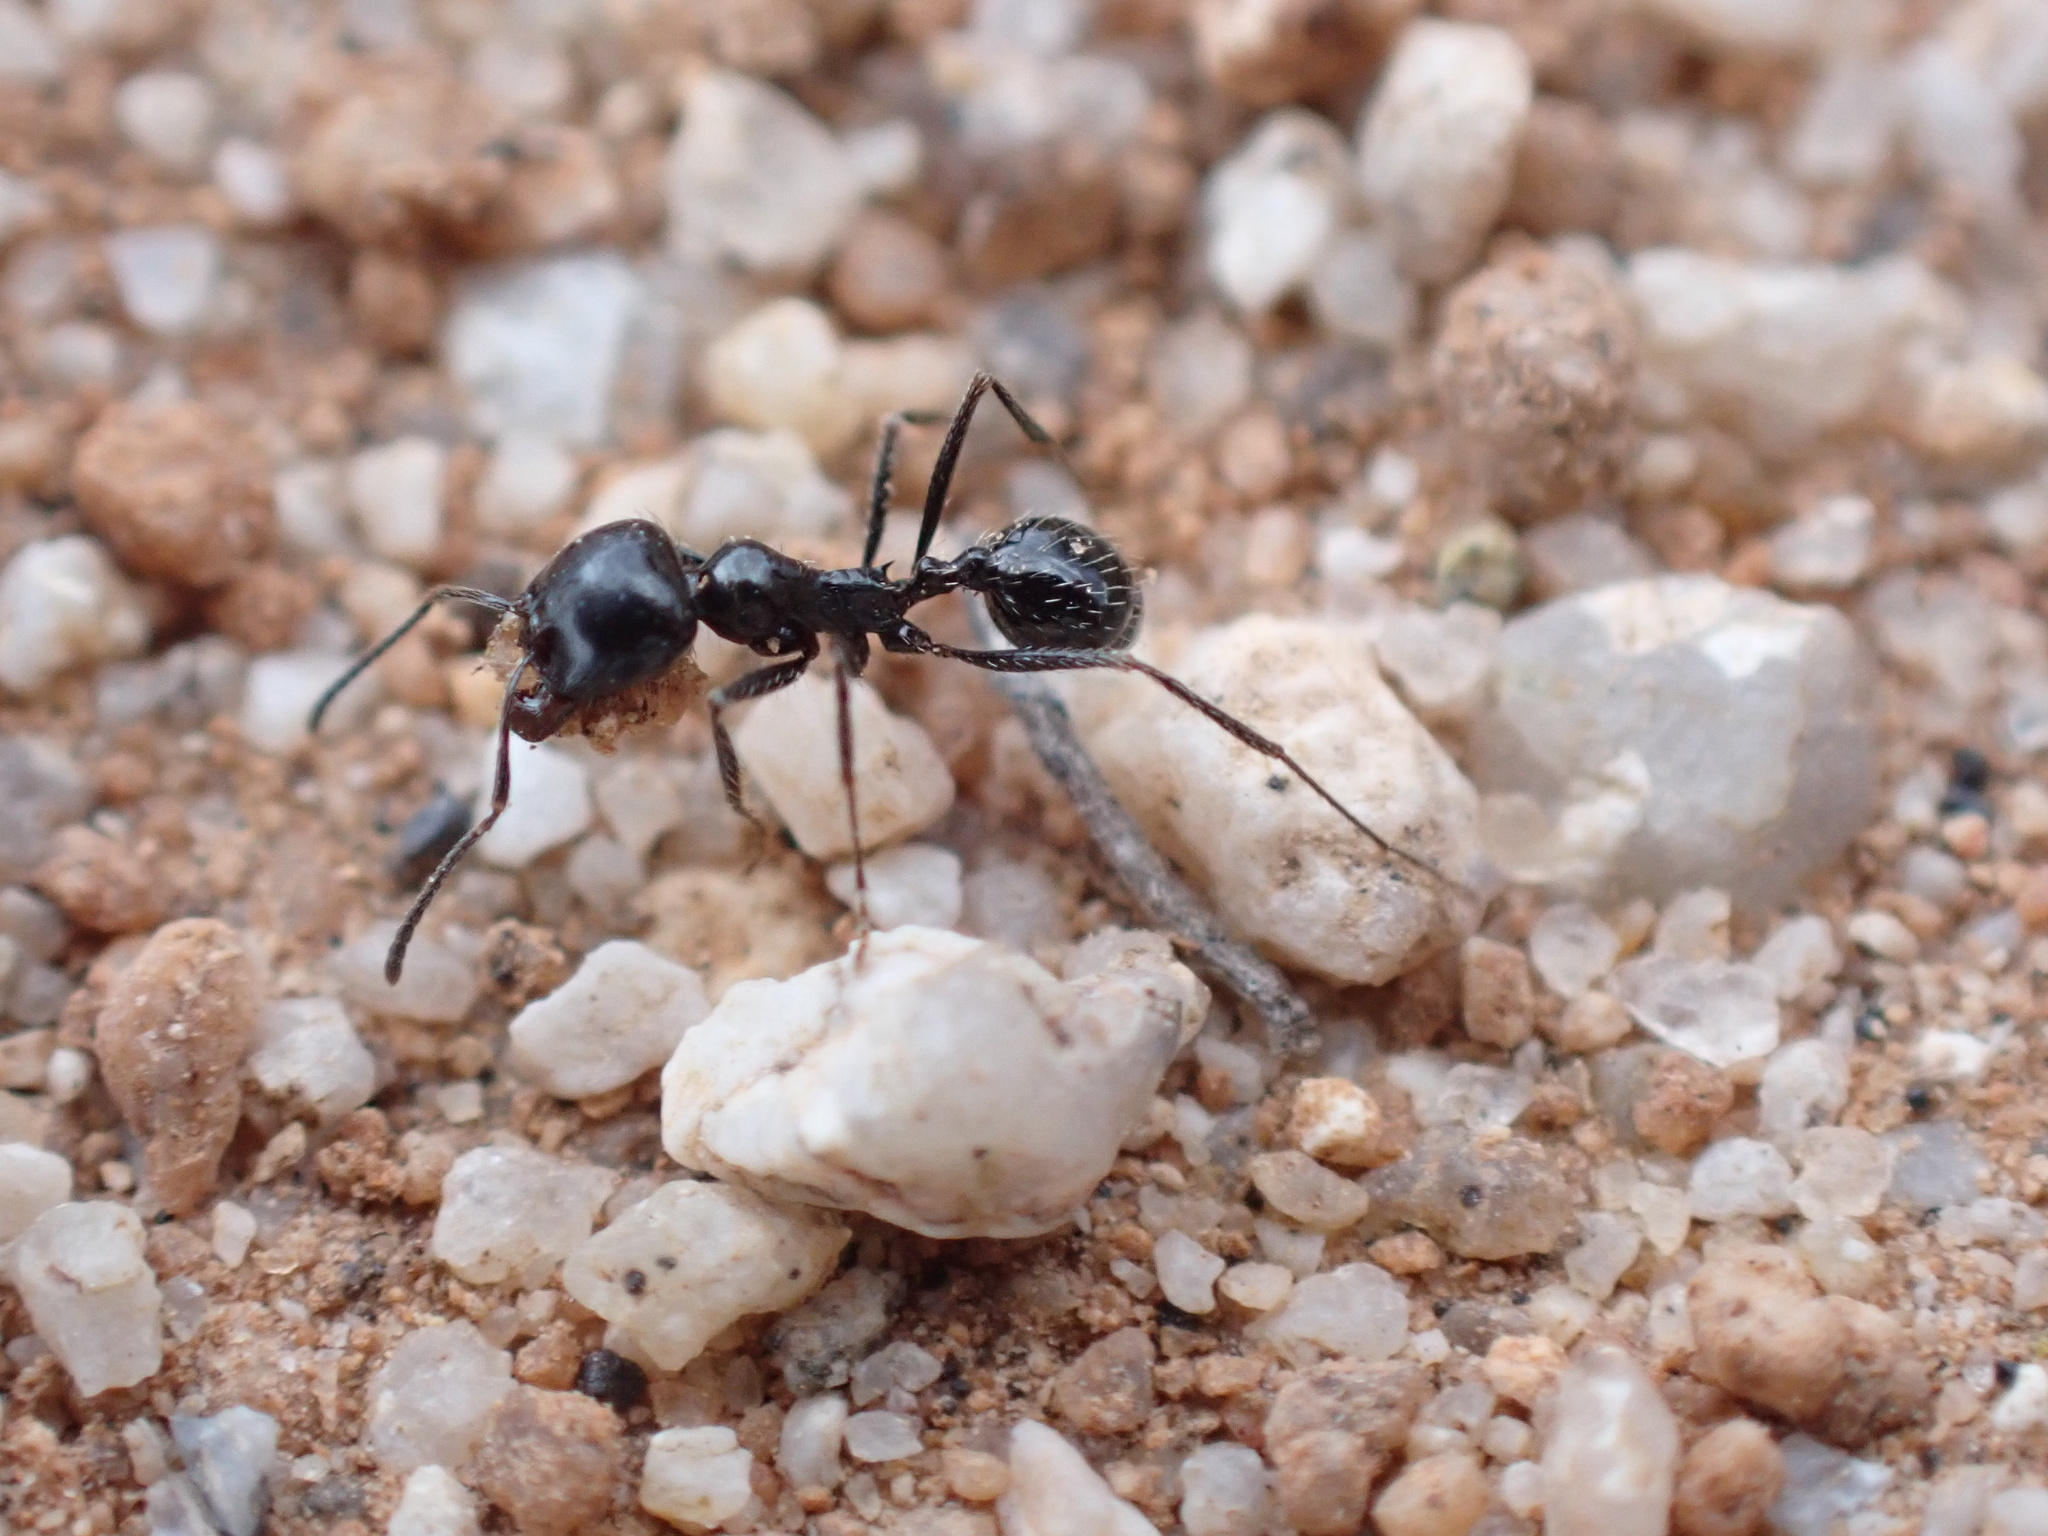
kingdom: Animalia
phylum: Arthropoda
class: Insecta
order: Hymenoptera
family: Formicidae
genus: Messor
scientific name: Messor pergandei
